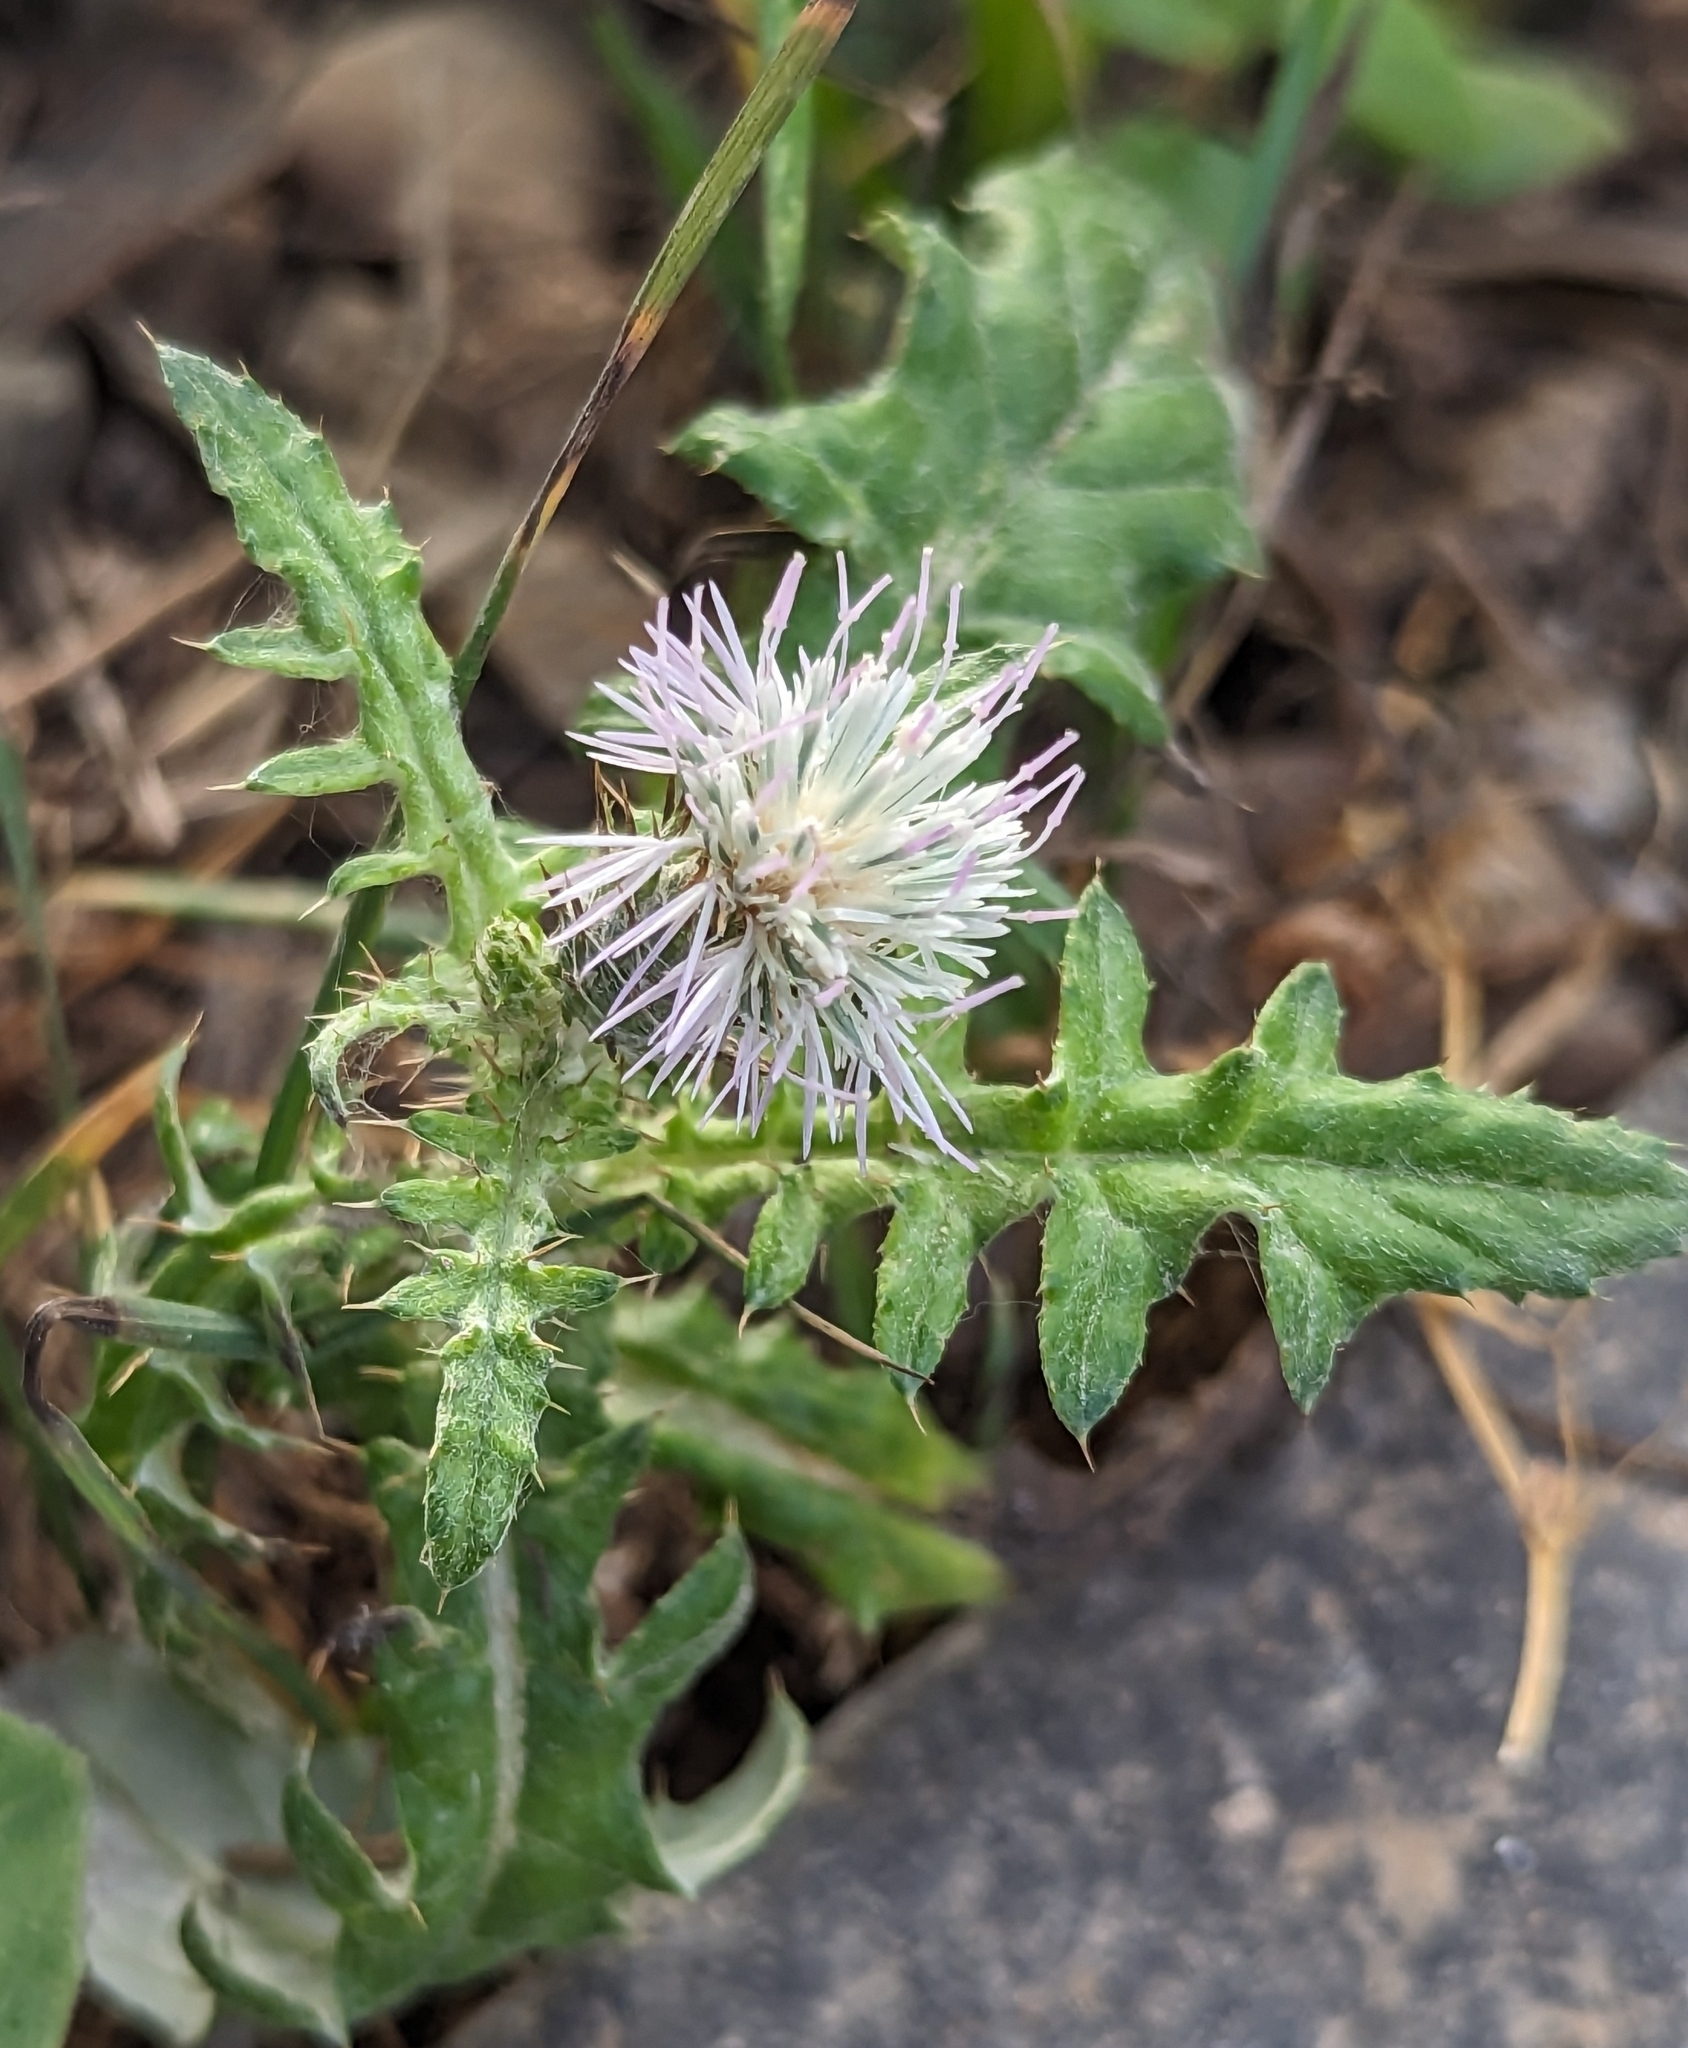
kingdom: Plantae
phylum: Tracheophyta
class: Magnoliopsida
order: Asterales
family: Asteraceae
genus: Galactites
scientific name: Galactites tomentosa
